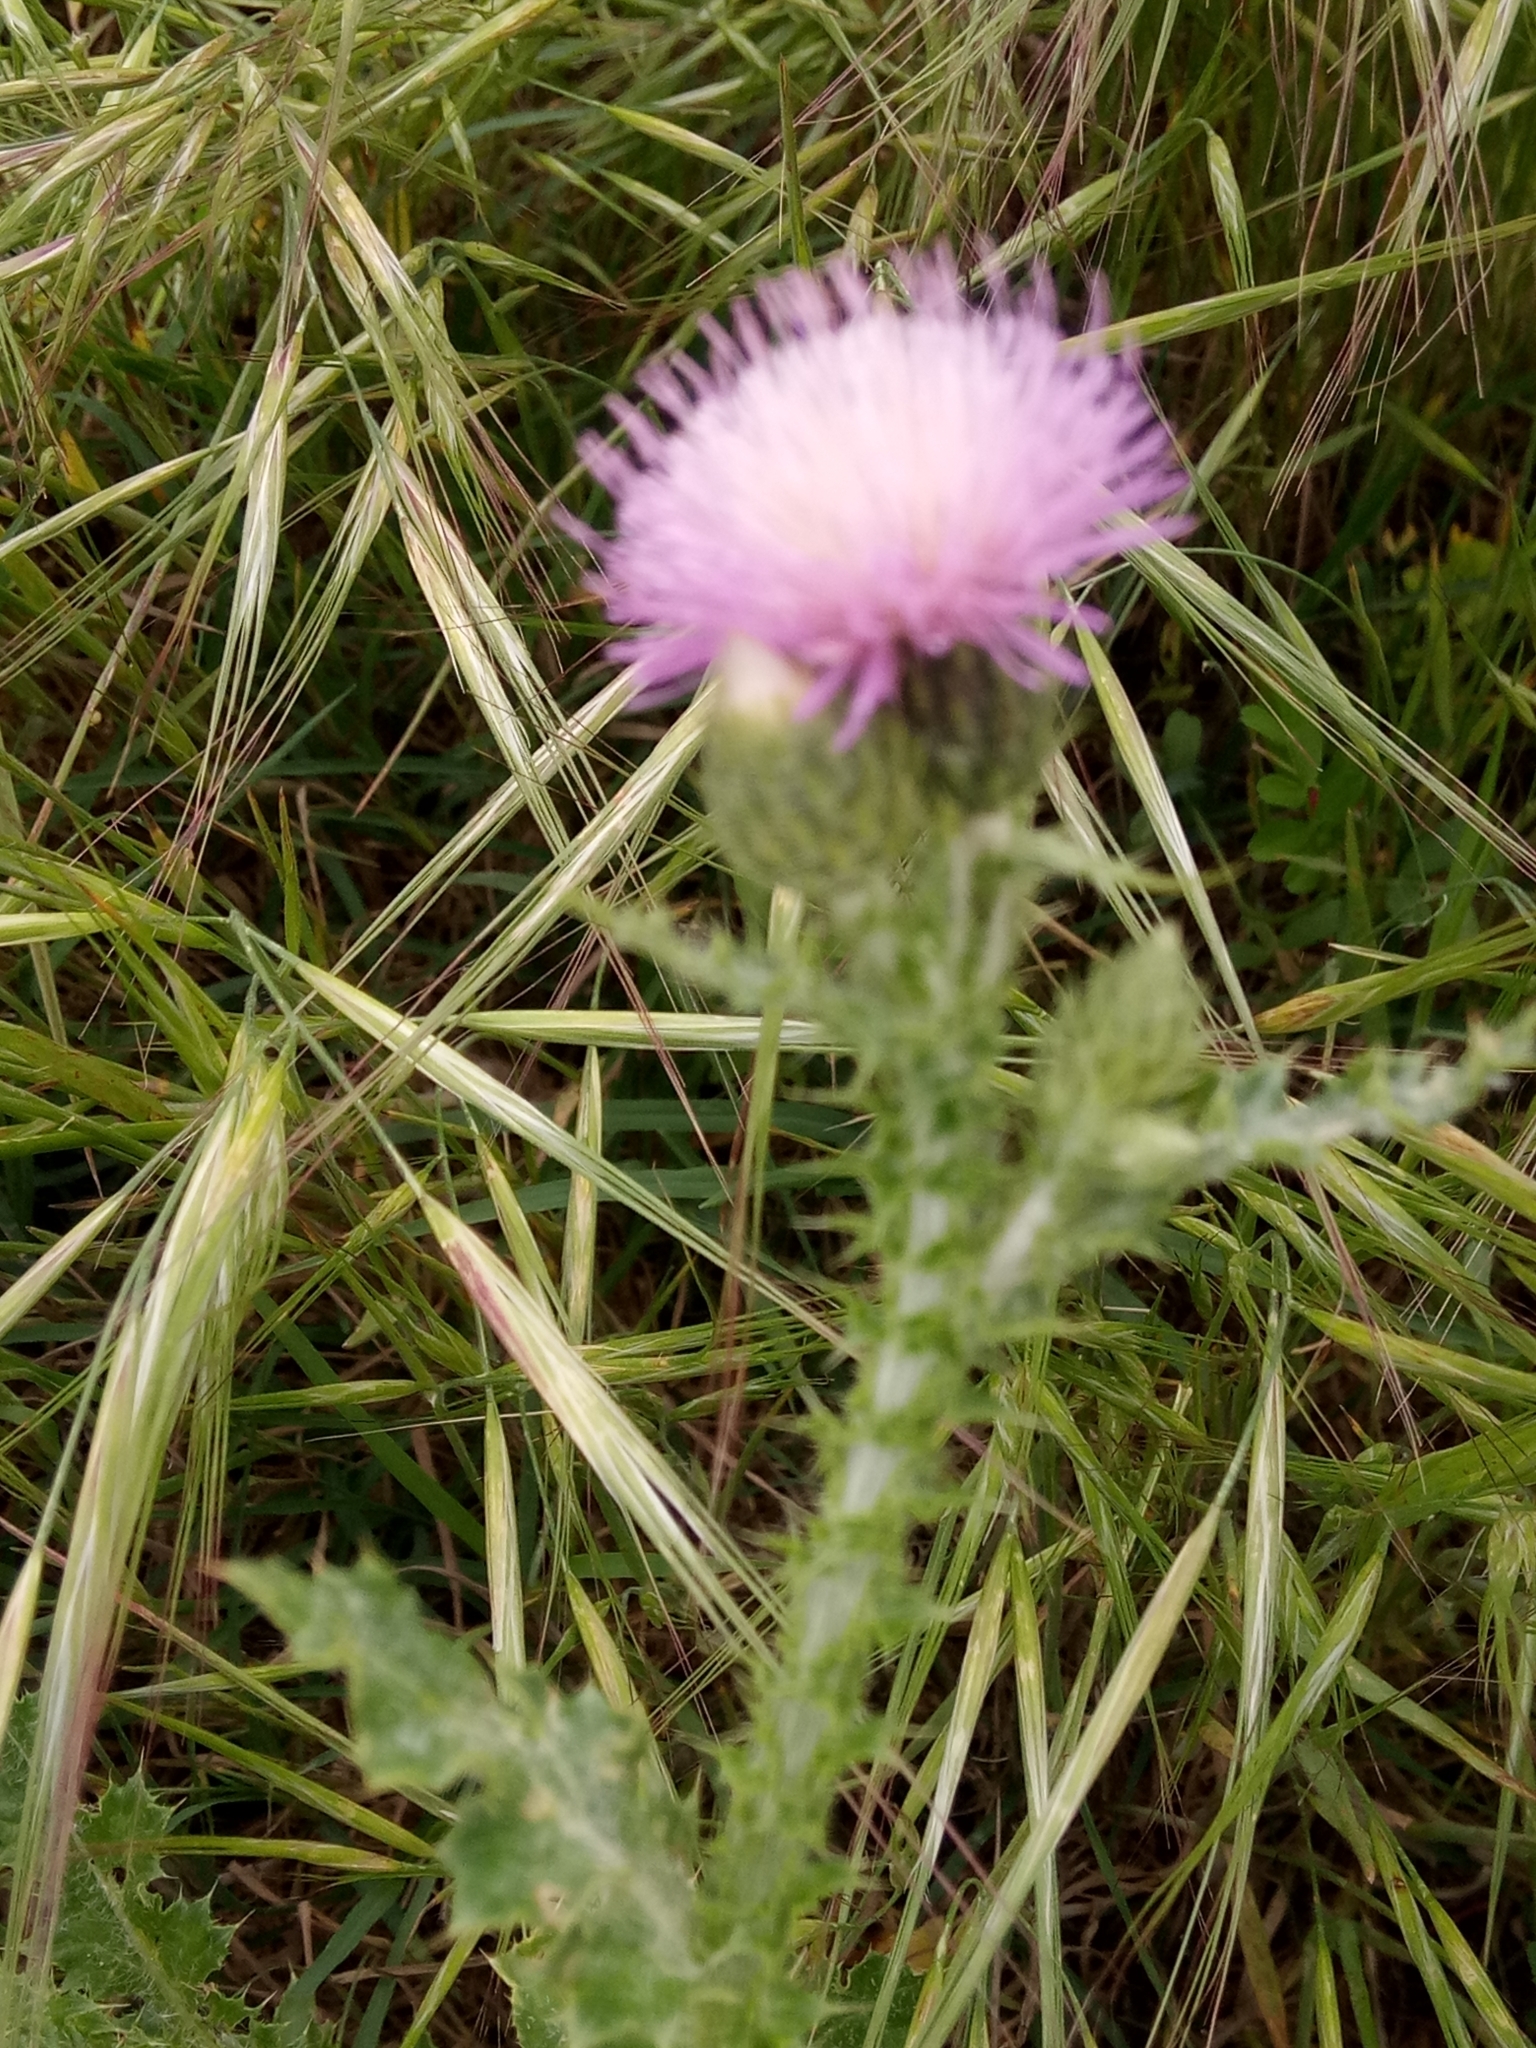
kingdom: Plantae
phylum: Tracheophyta
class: Magnoliopsida
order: Asterales
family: Asteraceae
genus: Carduus
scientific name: Carduus tenuiflorus
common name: Slender thistle
